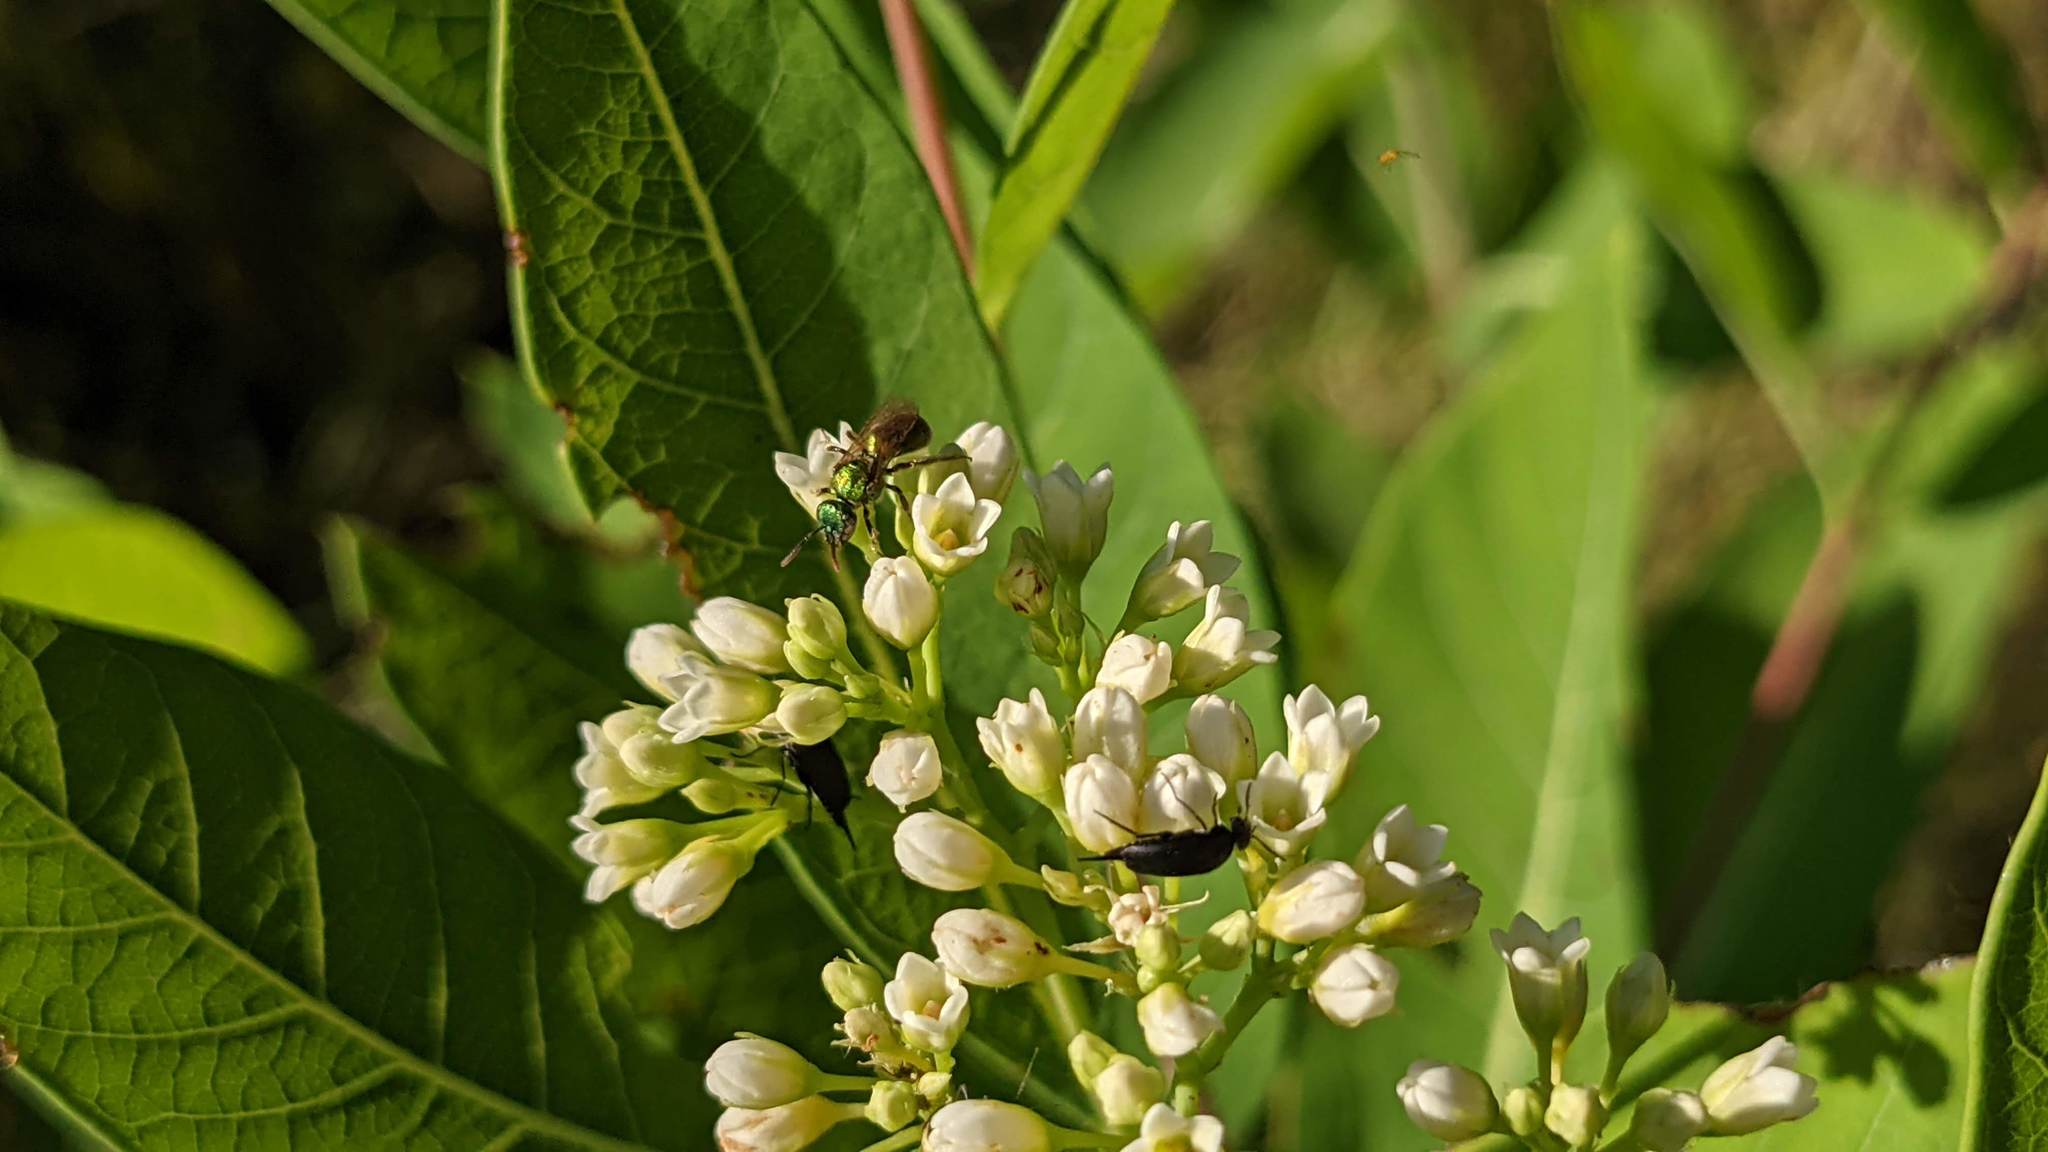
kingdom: Plantae
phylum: Tracheophyta
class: Magnoliopsida
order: Gentianales
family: Apocynaceae
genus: Apocynum
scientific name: Apocynum cannabinum
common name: Hemp dogbane
